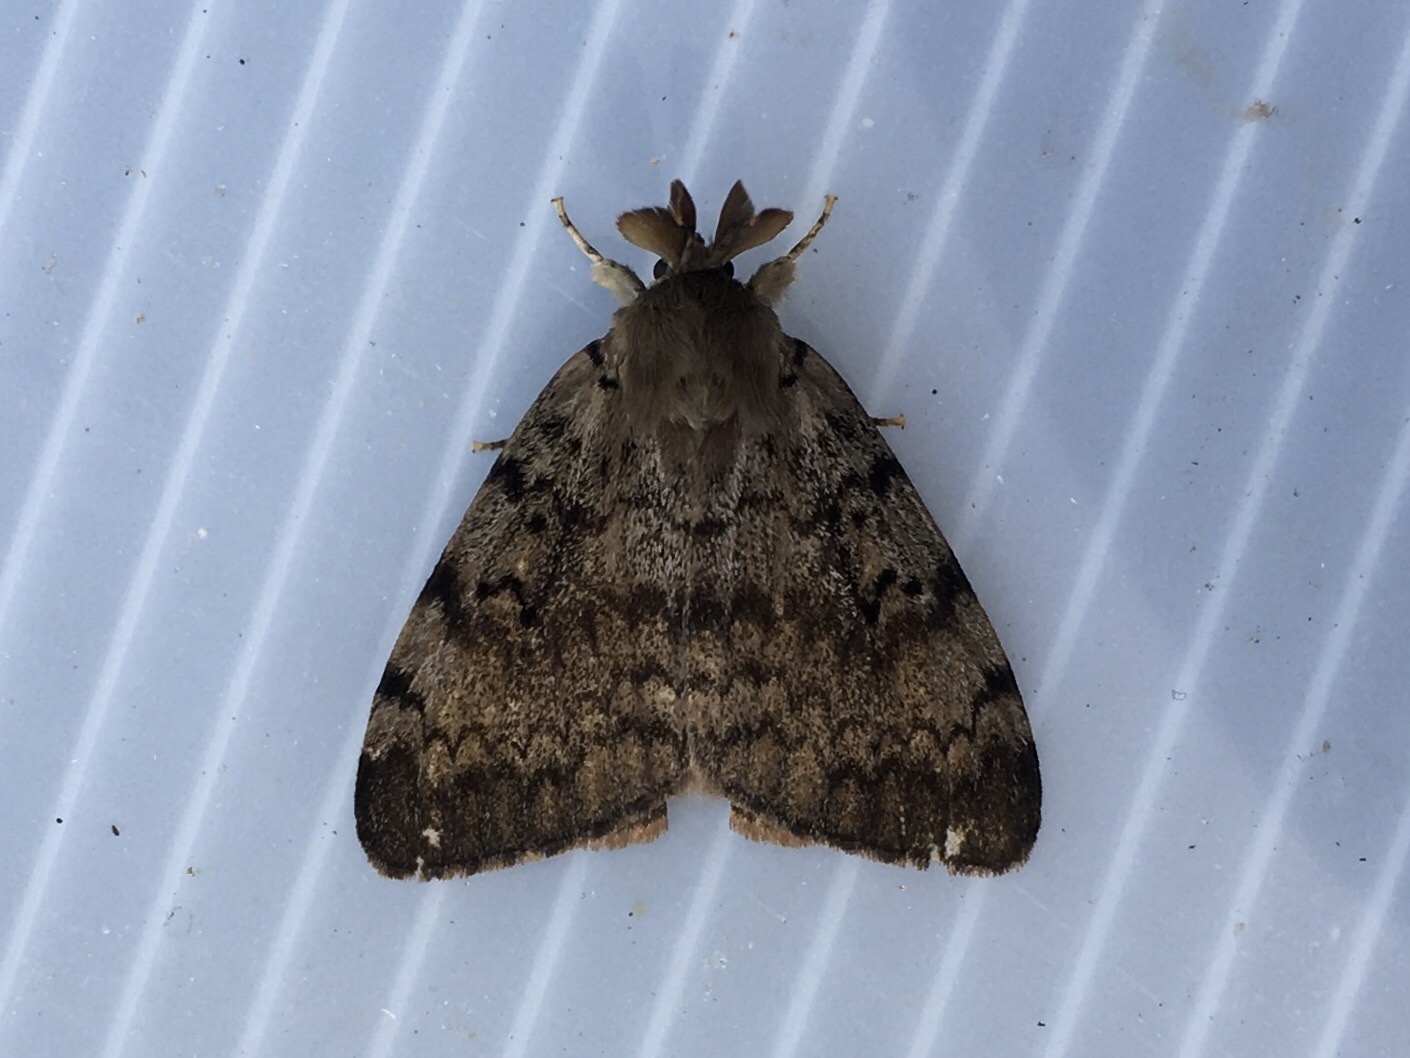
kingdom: Animalia
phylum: Arthropoda
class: Insecta
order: Lepidoptera
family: Erebidae
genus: Lymantria
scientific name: Lymantria dispar
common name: Gypsy moth
